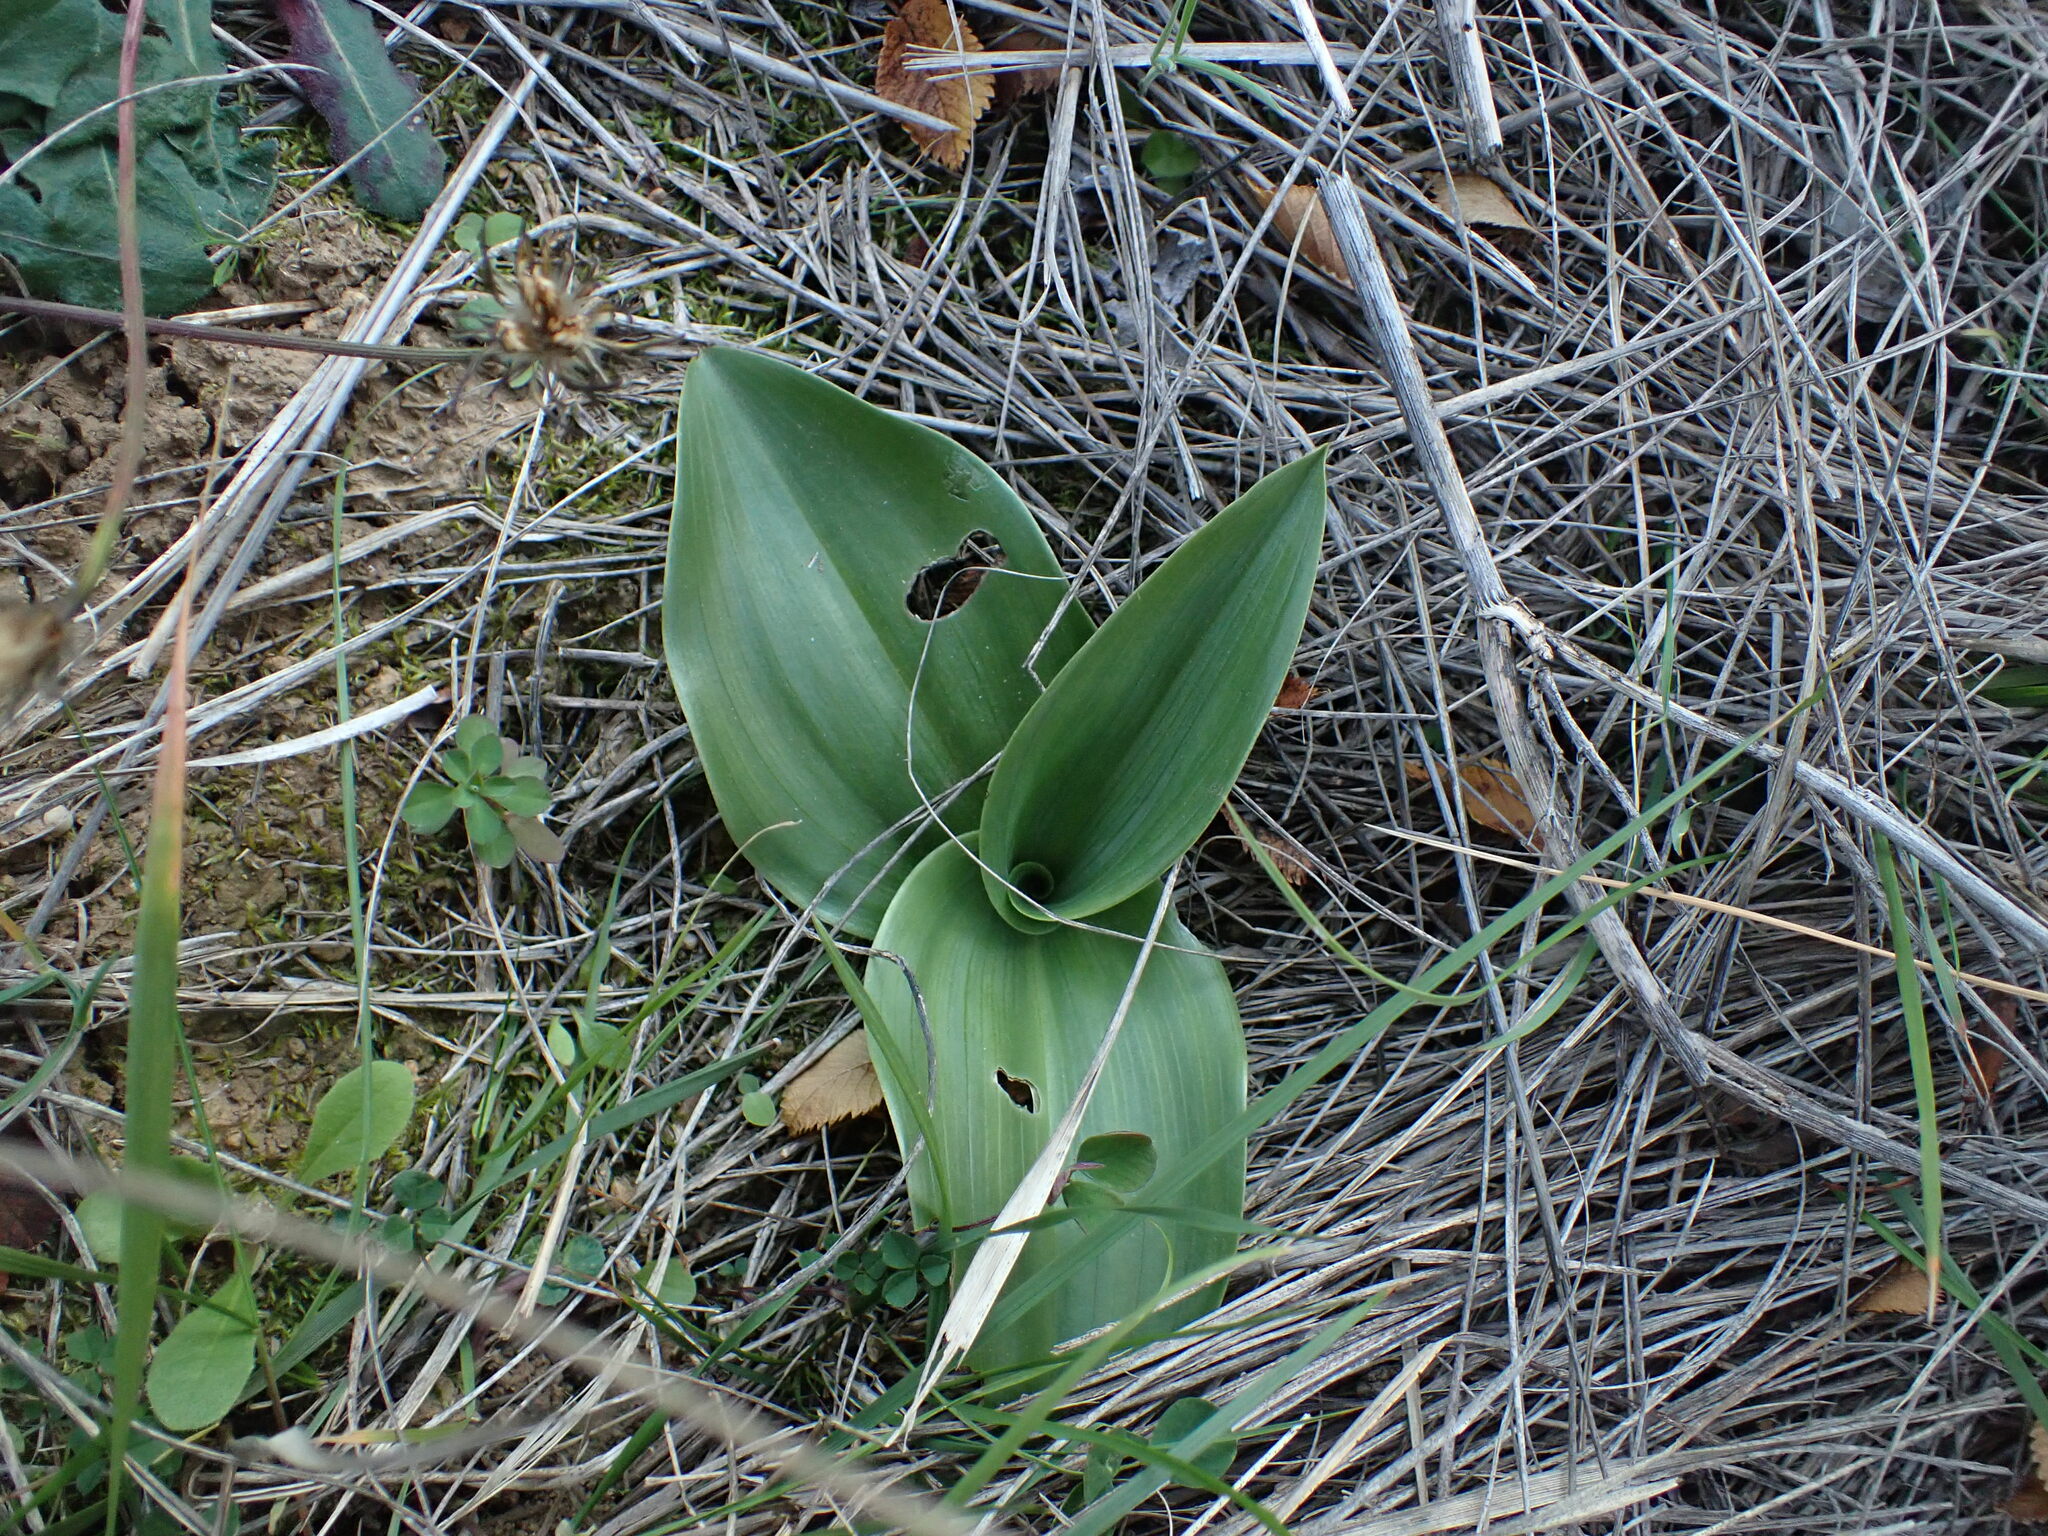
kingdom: Plantae
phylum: Tracheophyta
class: Liliopsida
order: Asparagales
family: Orchidaceae
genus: Himantoglossum
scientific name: Himantoglossum robertianum
